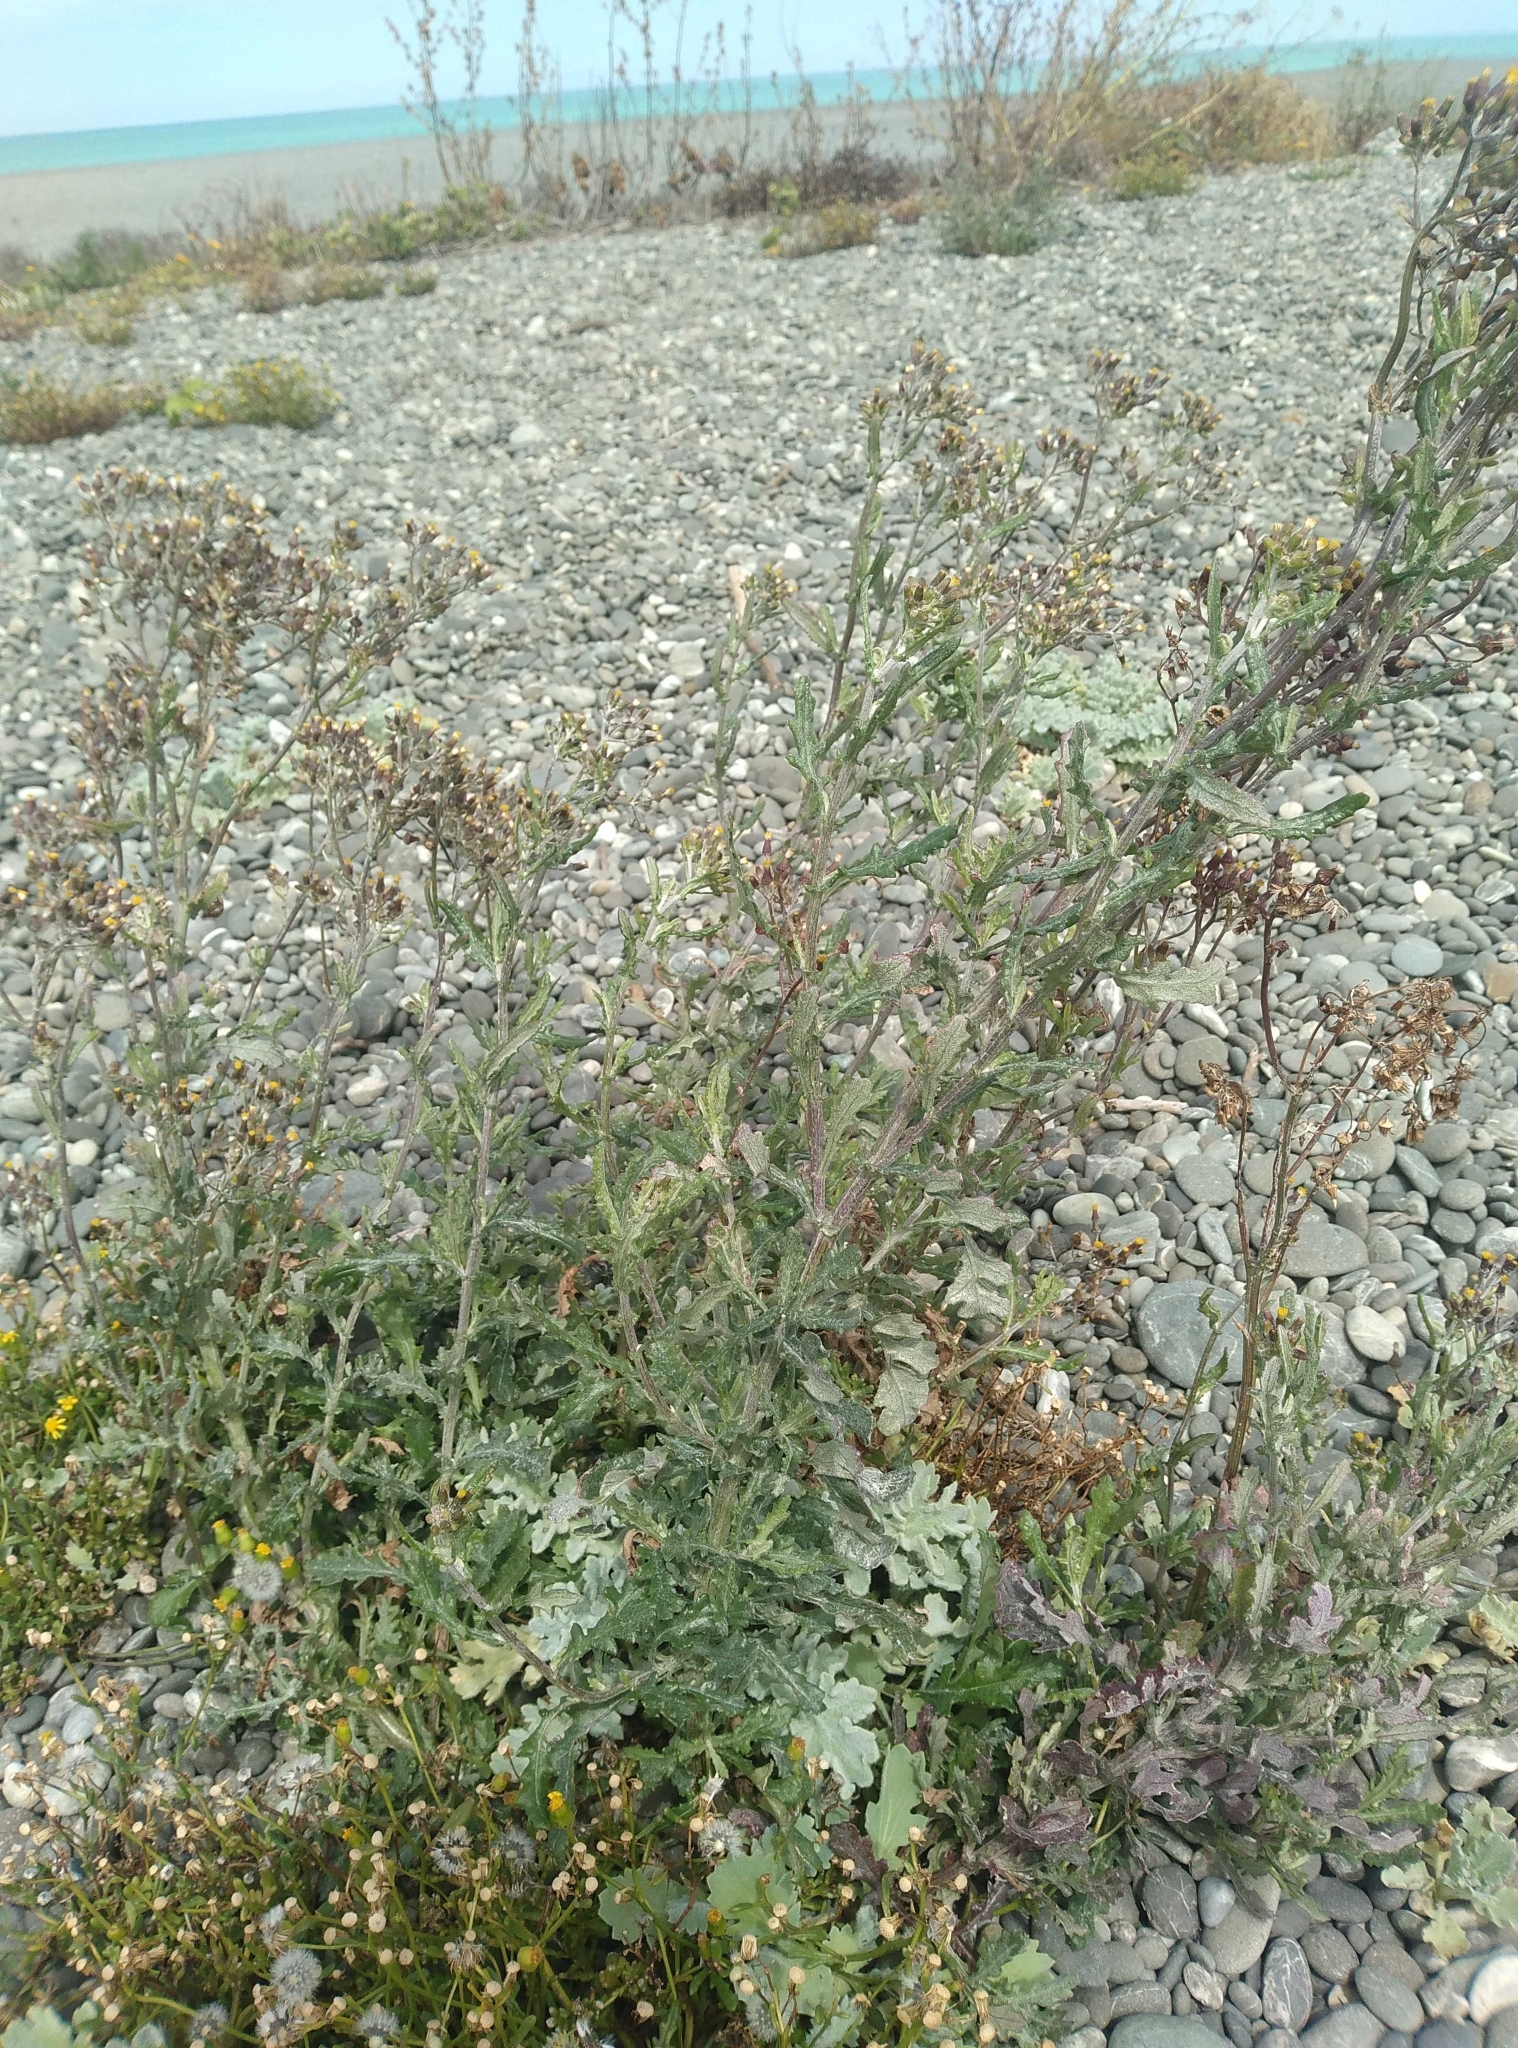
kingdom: Plantae
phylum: Tracheophyta
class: Magnoliopsida
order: Asterales
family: Asteraceae
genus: Senecio
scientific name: Senecio glomeratus
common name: Cutleaf burnweed
